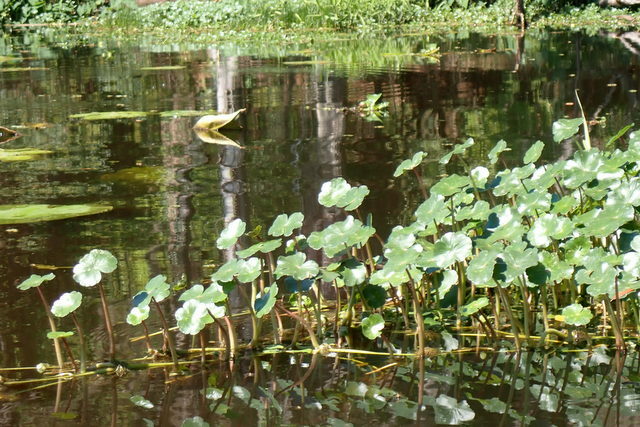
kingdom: Plantae
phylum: Tracheophyta
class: Magnoliopsida
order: Apiales
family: Araliaceae
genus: Hydrocotyle
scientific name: Hydrocotyle ranunculoides
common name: Floating pennywort
